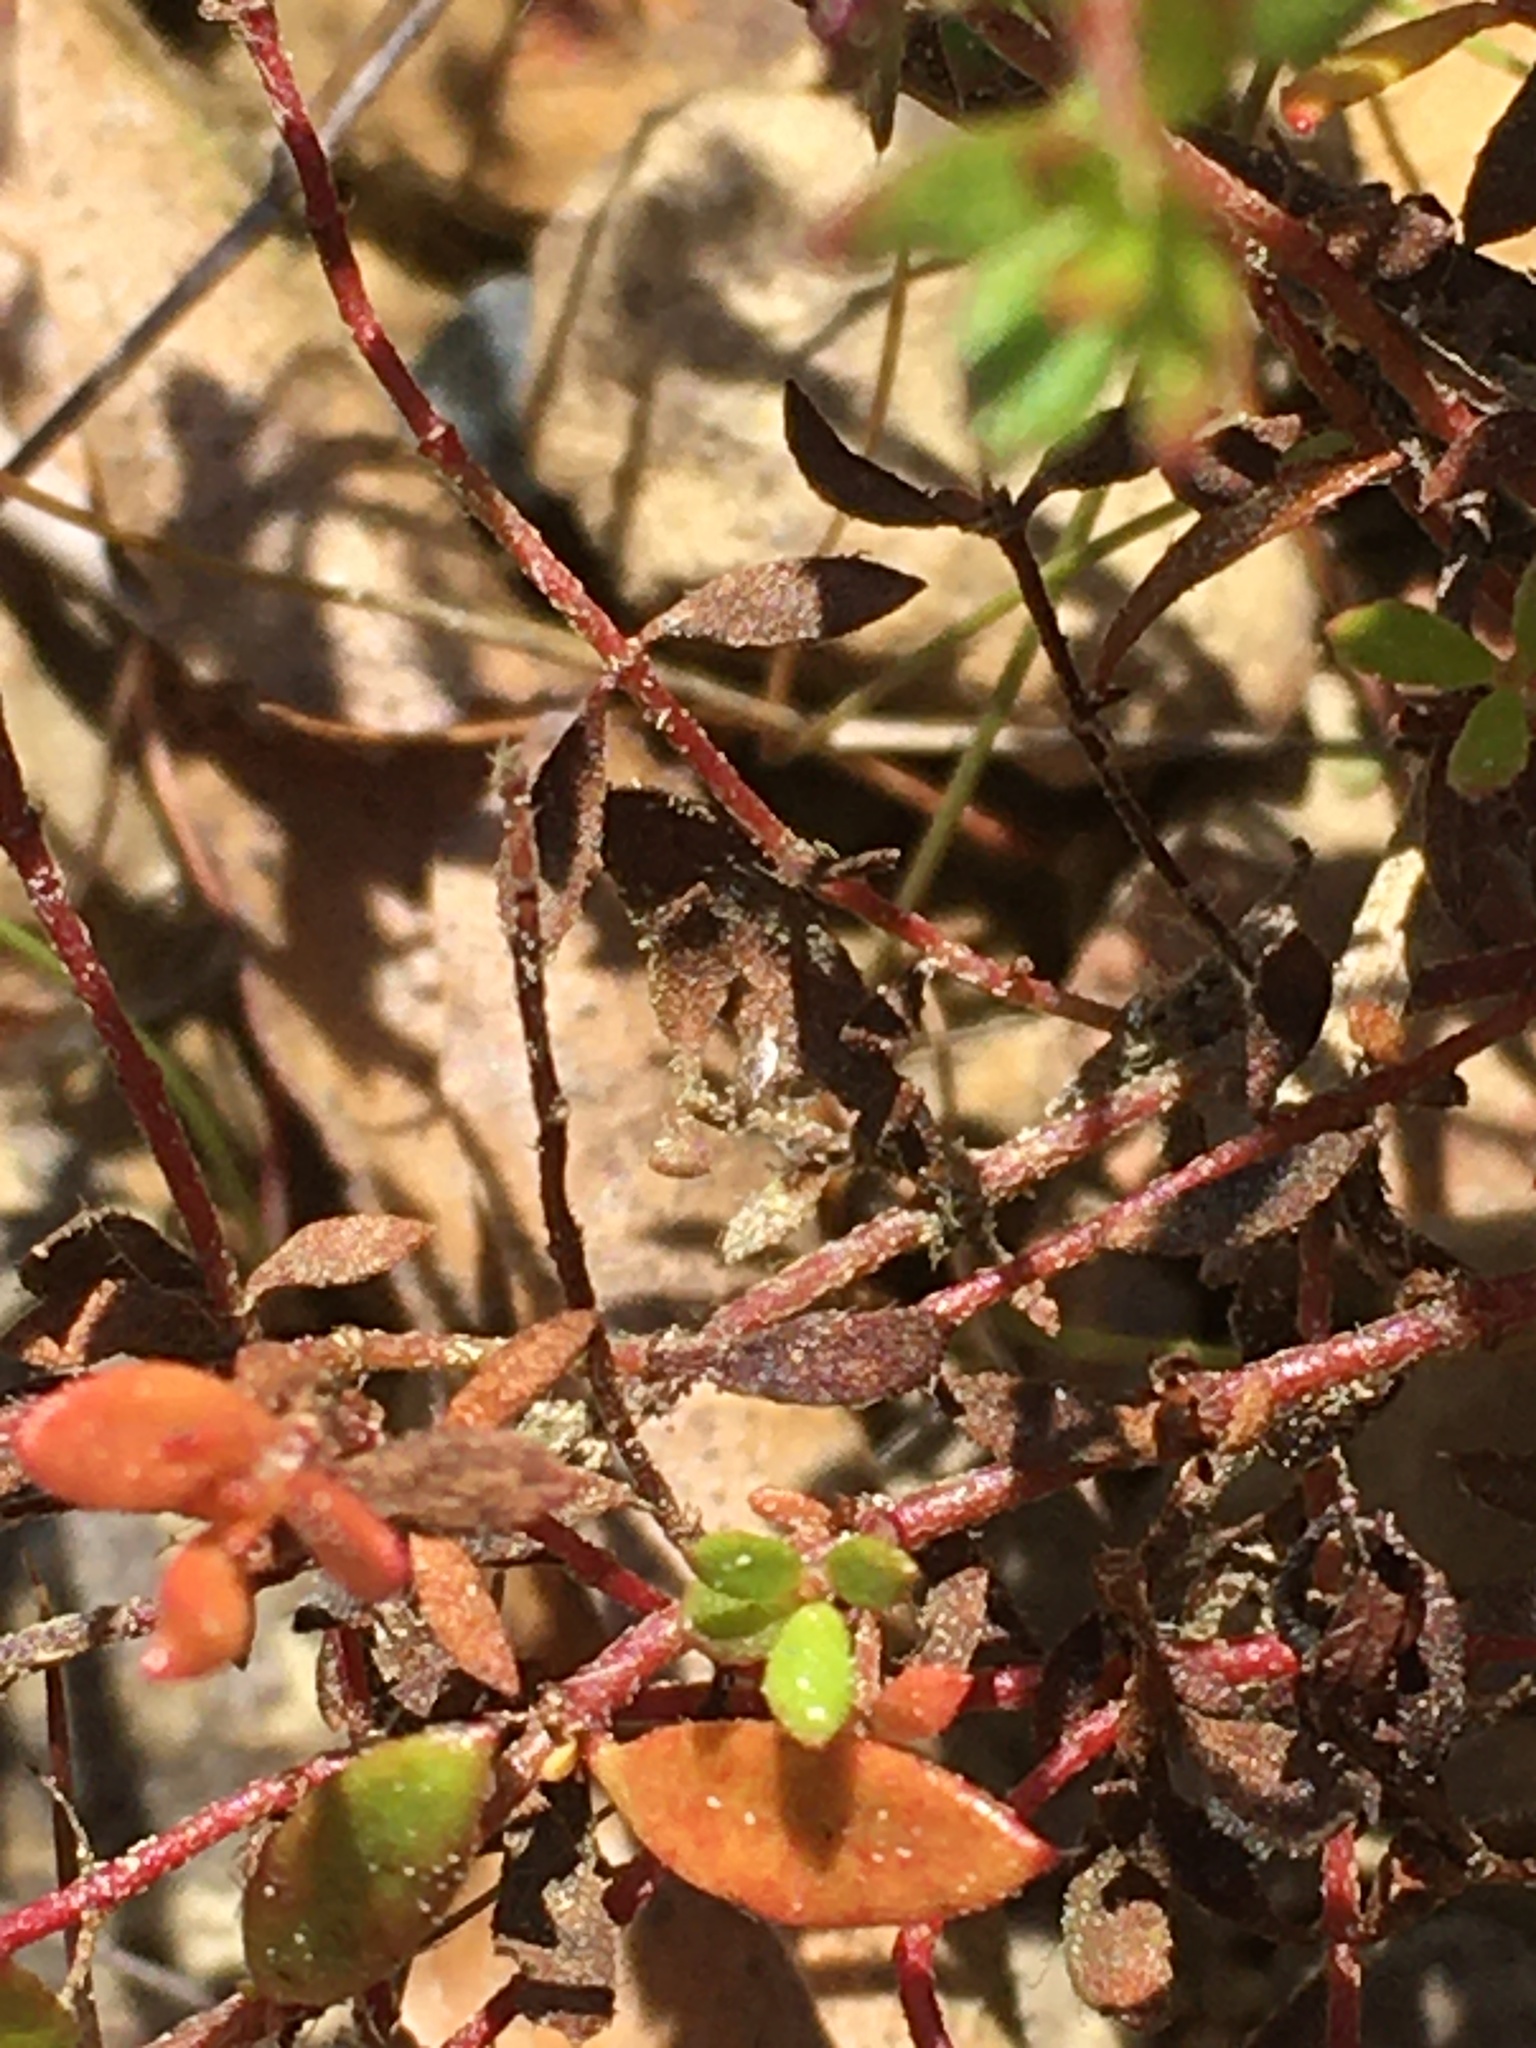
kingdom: Plantae
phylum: Tracheophyta
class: Magnoliopsida
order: Malvales
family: Cistaceae
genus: Lechea
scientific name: Lechea mucronata
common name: Hairy pinweed
